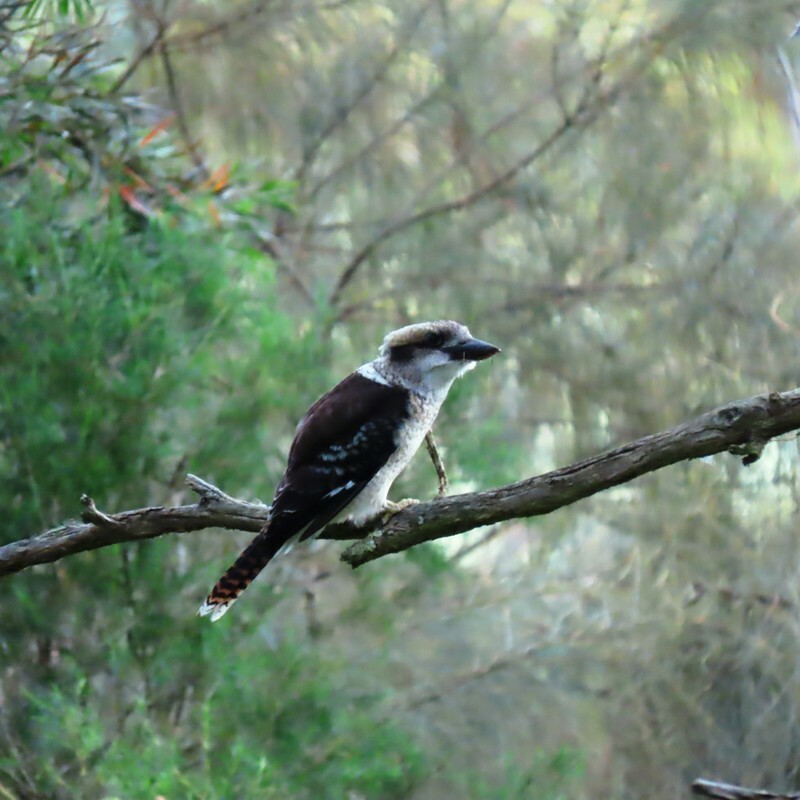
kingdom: Animalia
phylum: Chordata
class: Aves
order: Coraciiformes
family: Alcedinidae
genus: Dacelo
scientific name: Dacelo novaeguineae
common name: Laughing kookaburra
